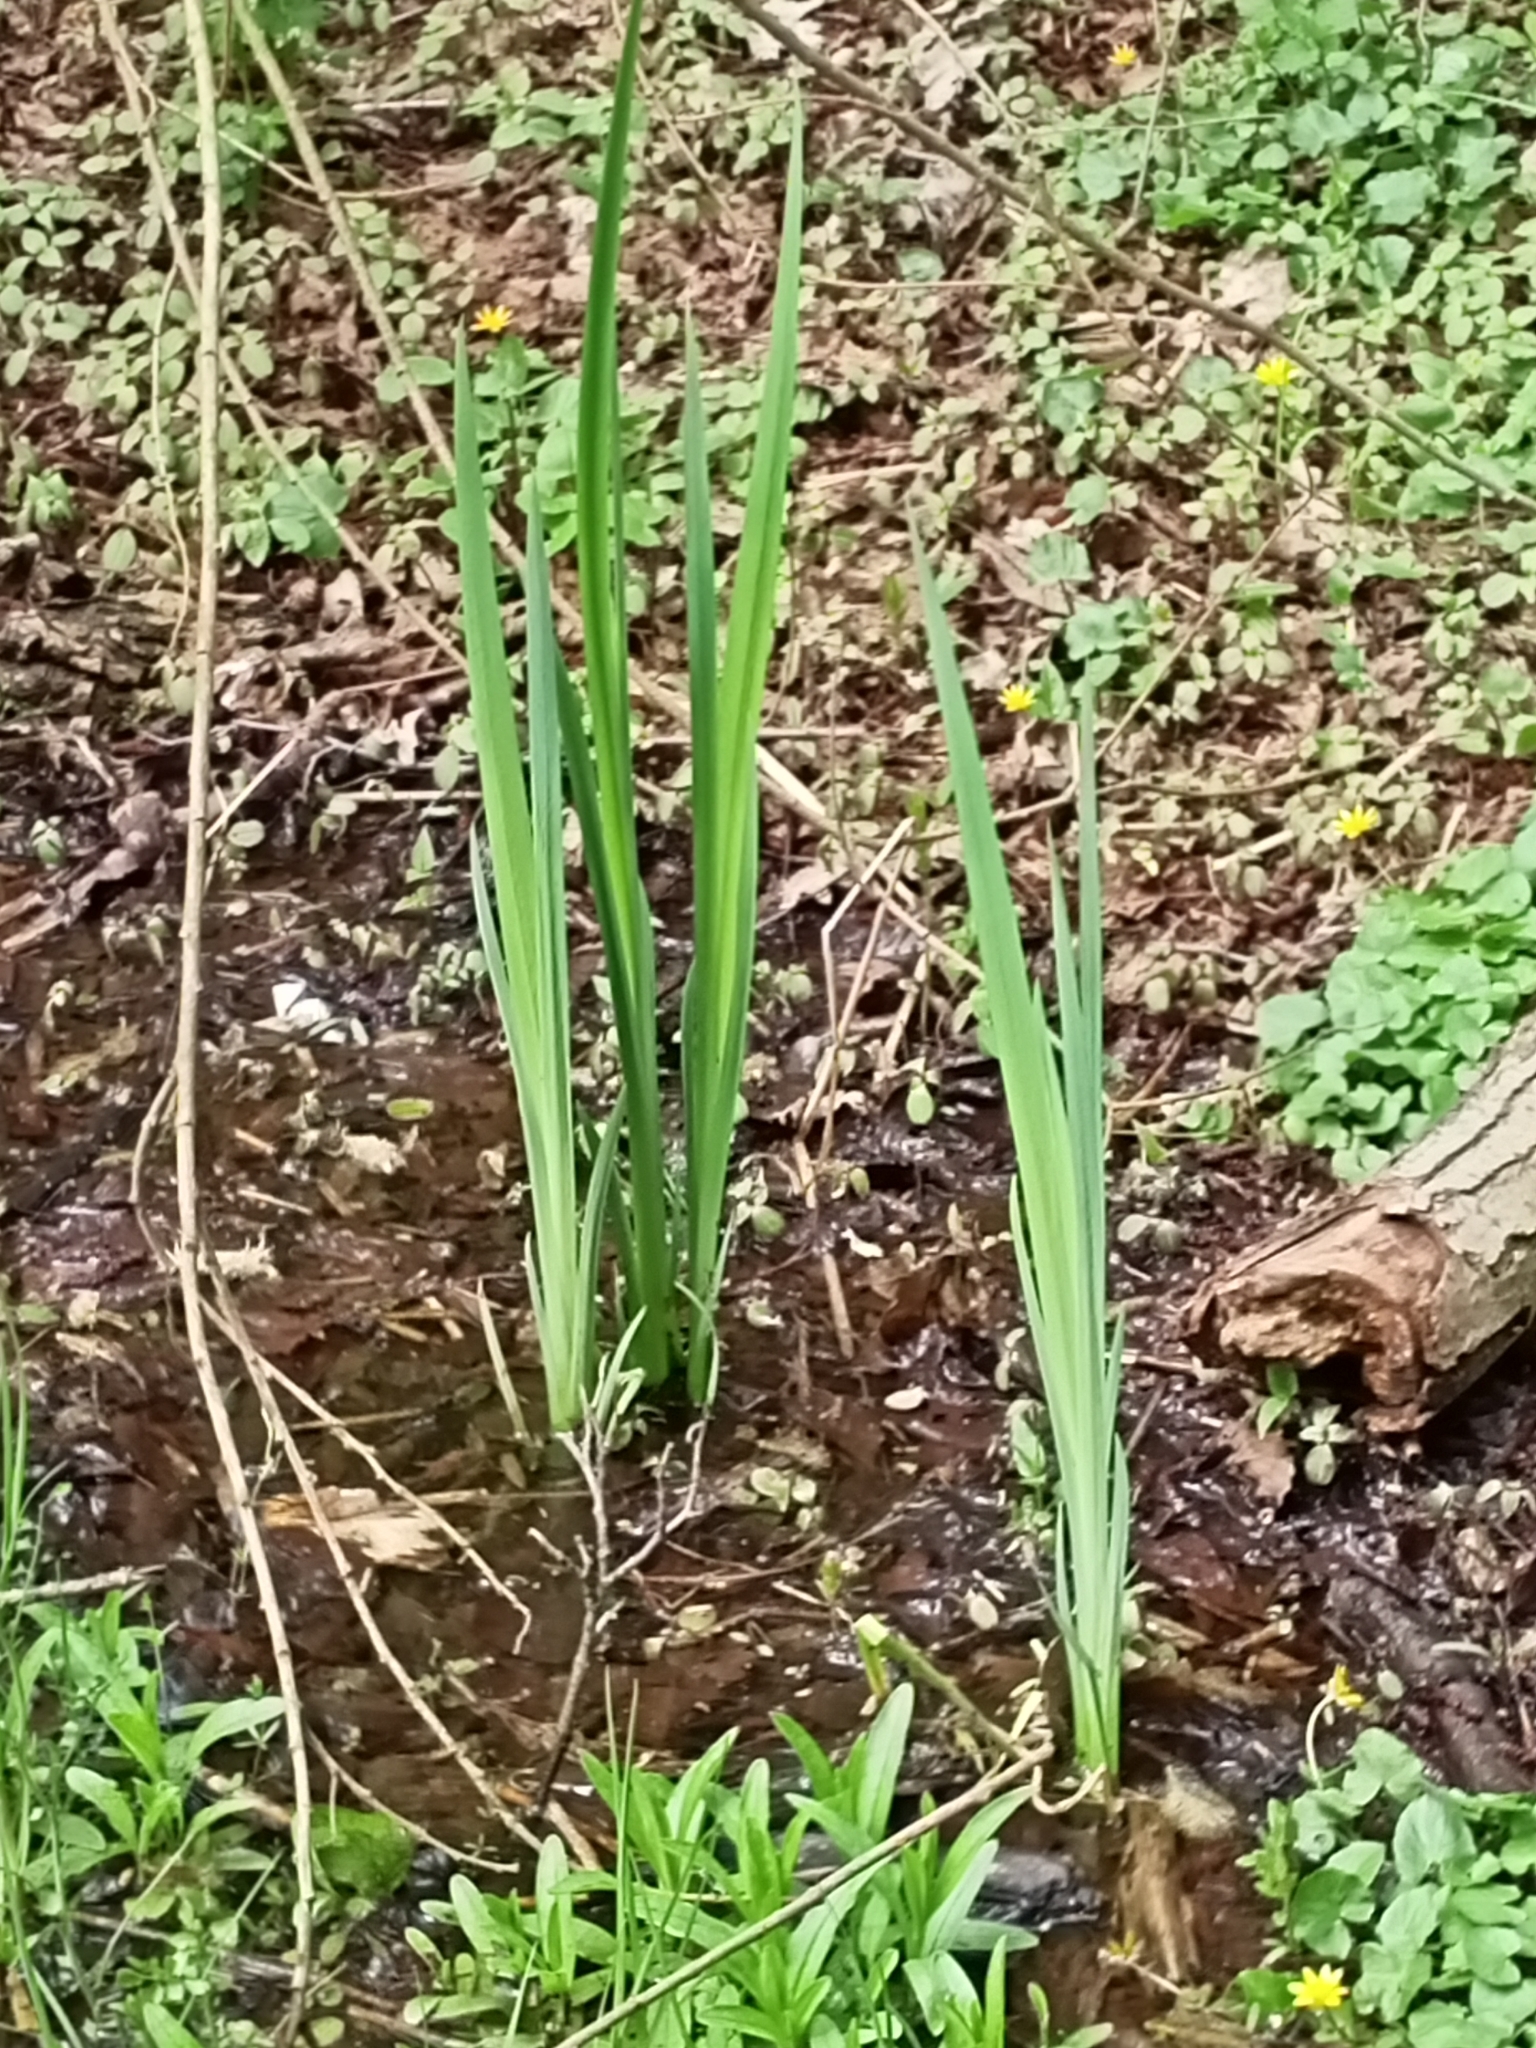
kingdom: Plantae
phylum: Tracheophyta
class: Liliopsida
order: Asparagales
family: Iridaceae
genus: Iris
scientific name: Iris pseudacorus
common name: Yellow flag
